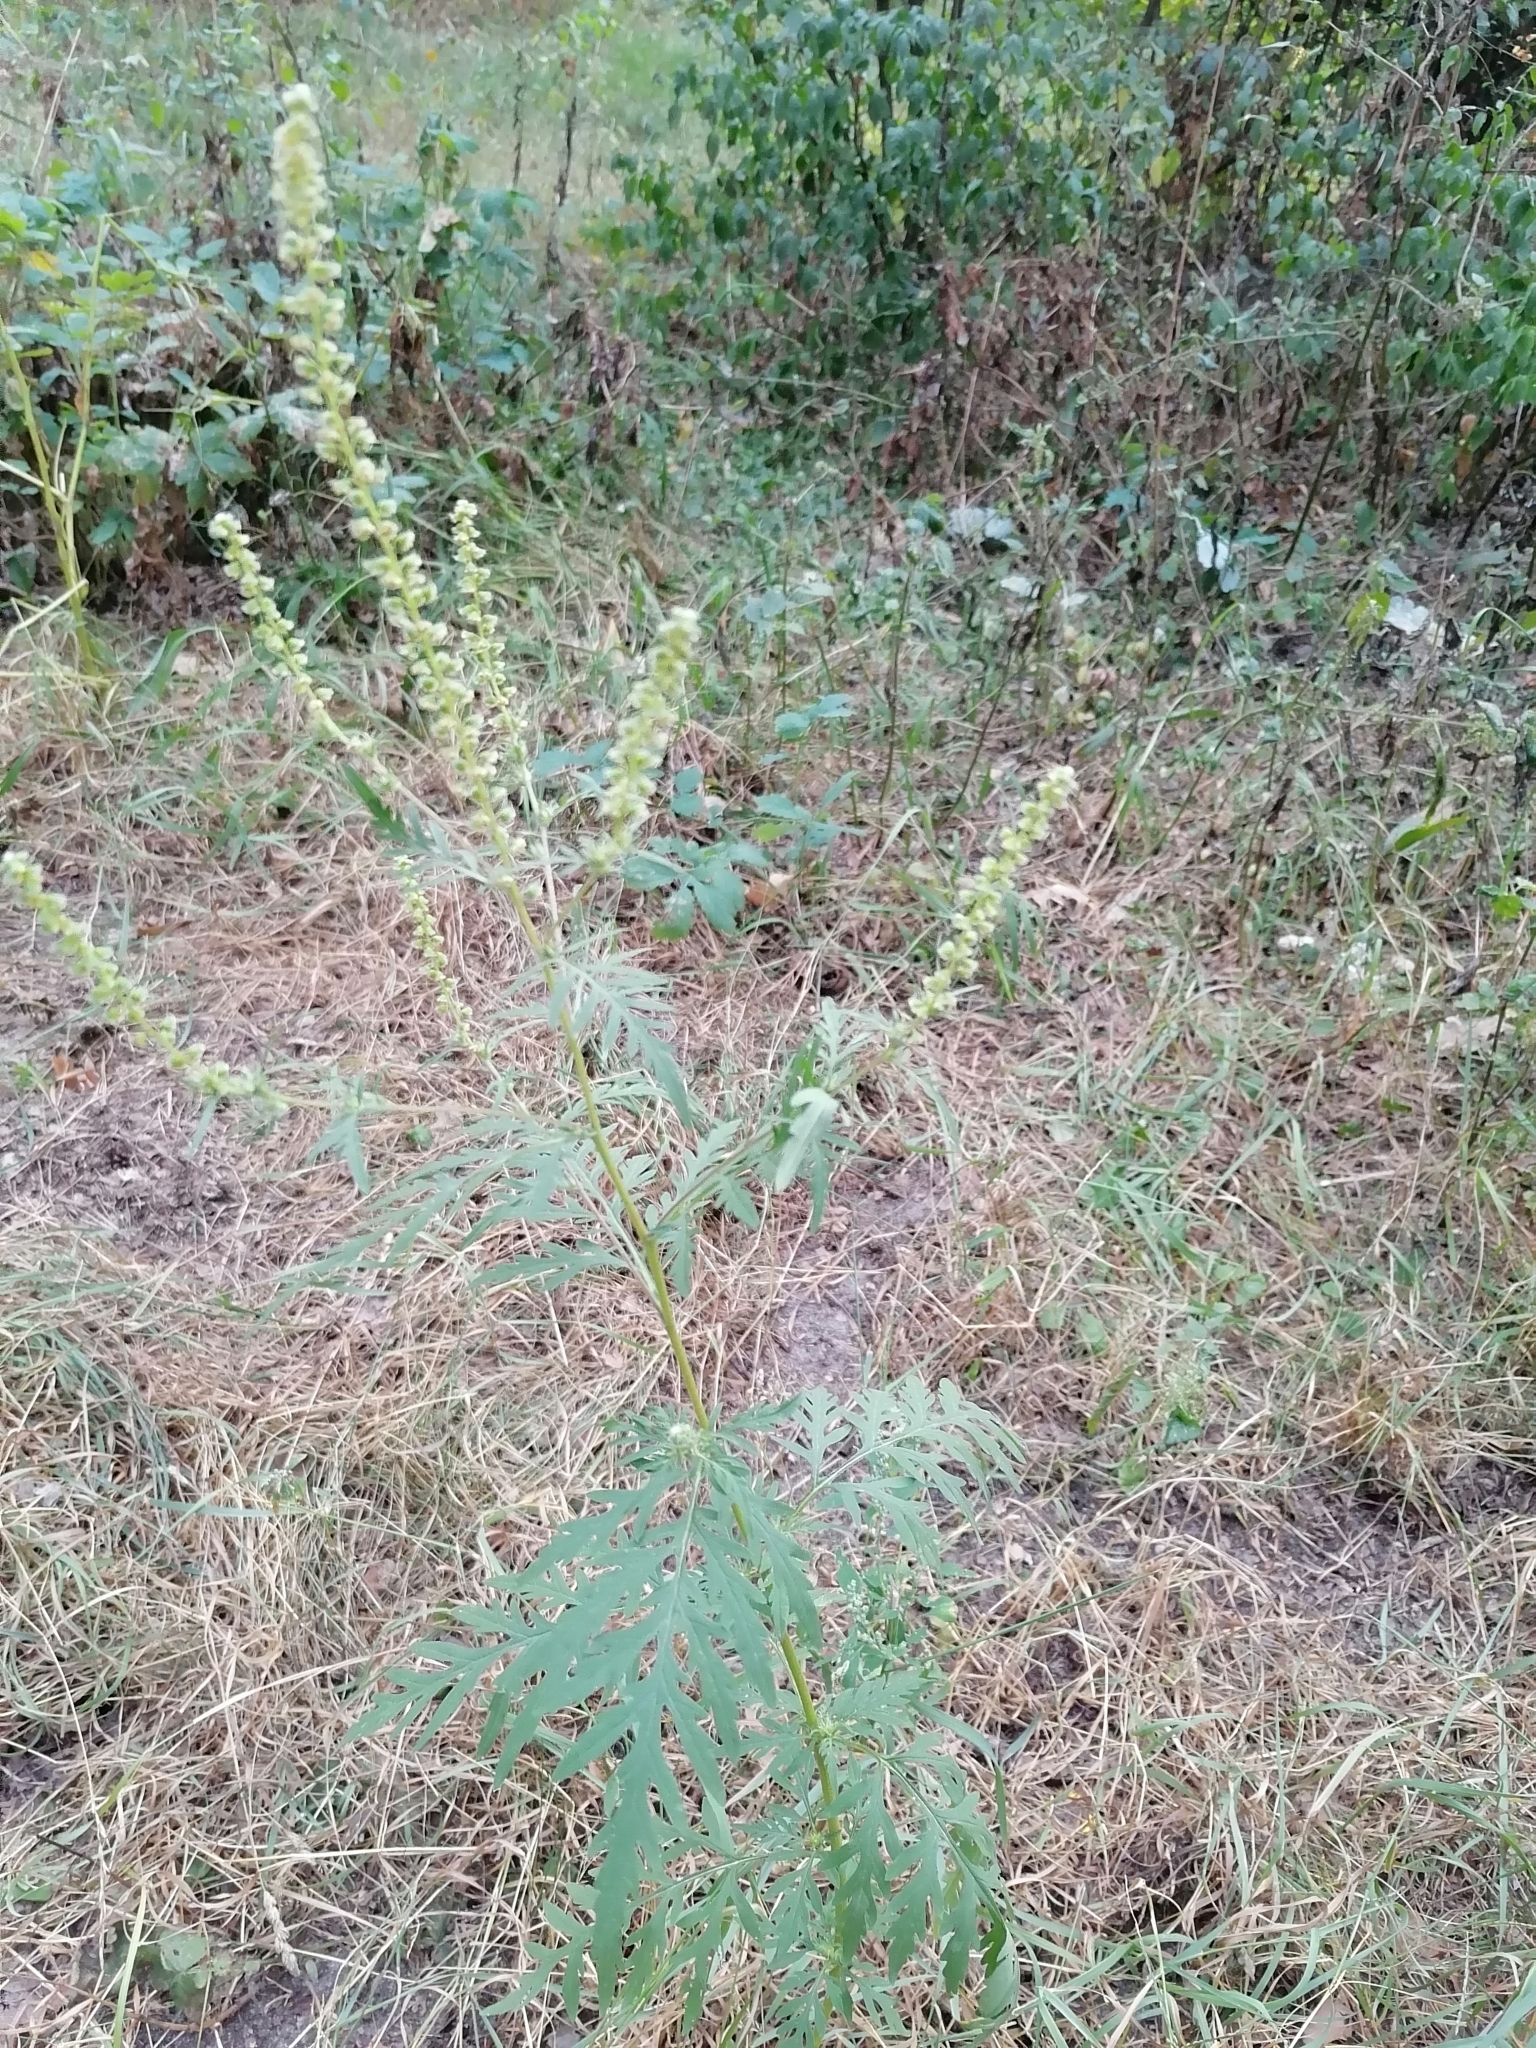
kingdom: Plantae
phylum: Tracheophyta
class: Magnoliopsida
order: Asterales
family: Asteraceae
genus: Ambrosia
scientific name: Ambrosia artemisiifolia
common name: Annual ragweed
